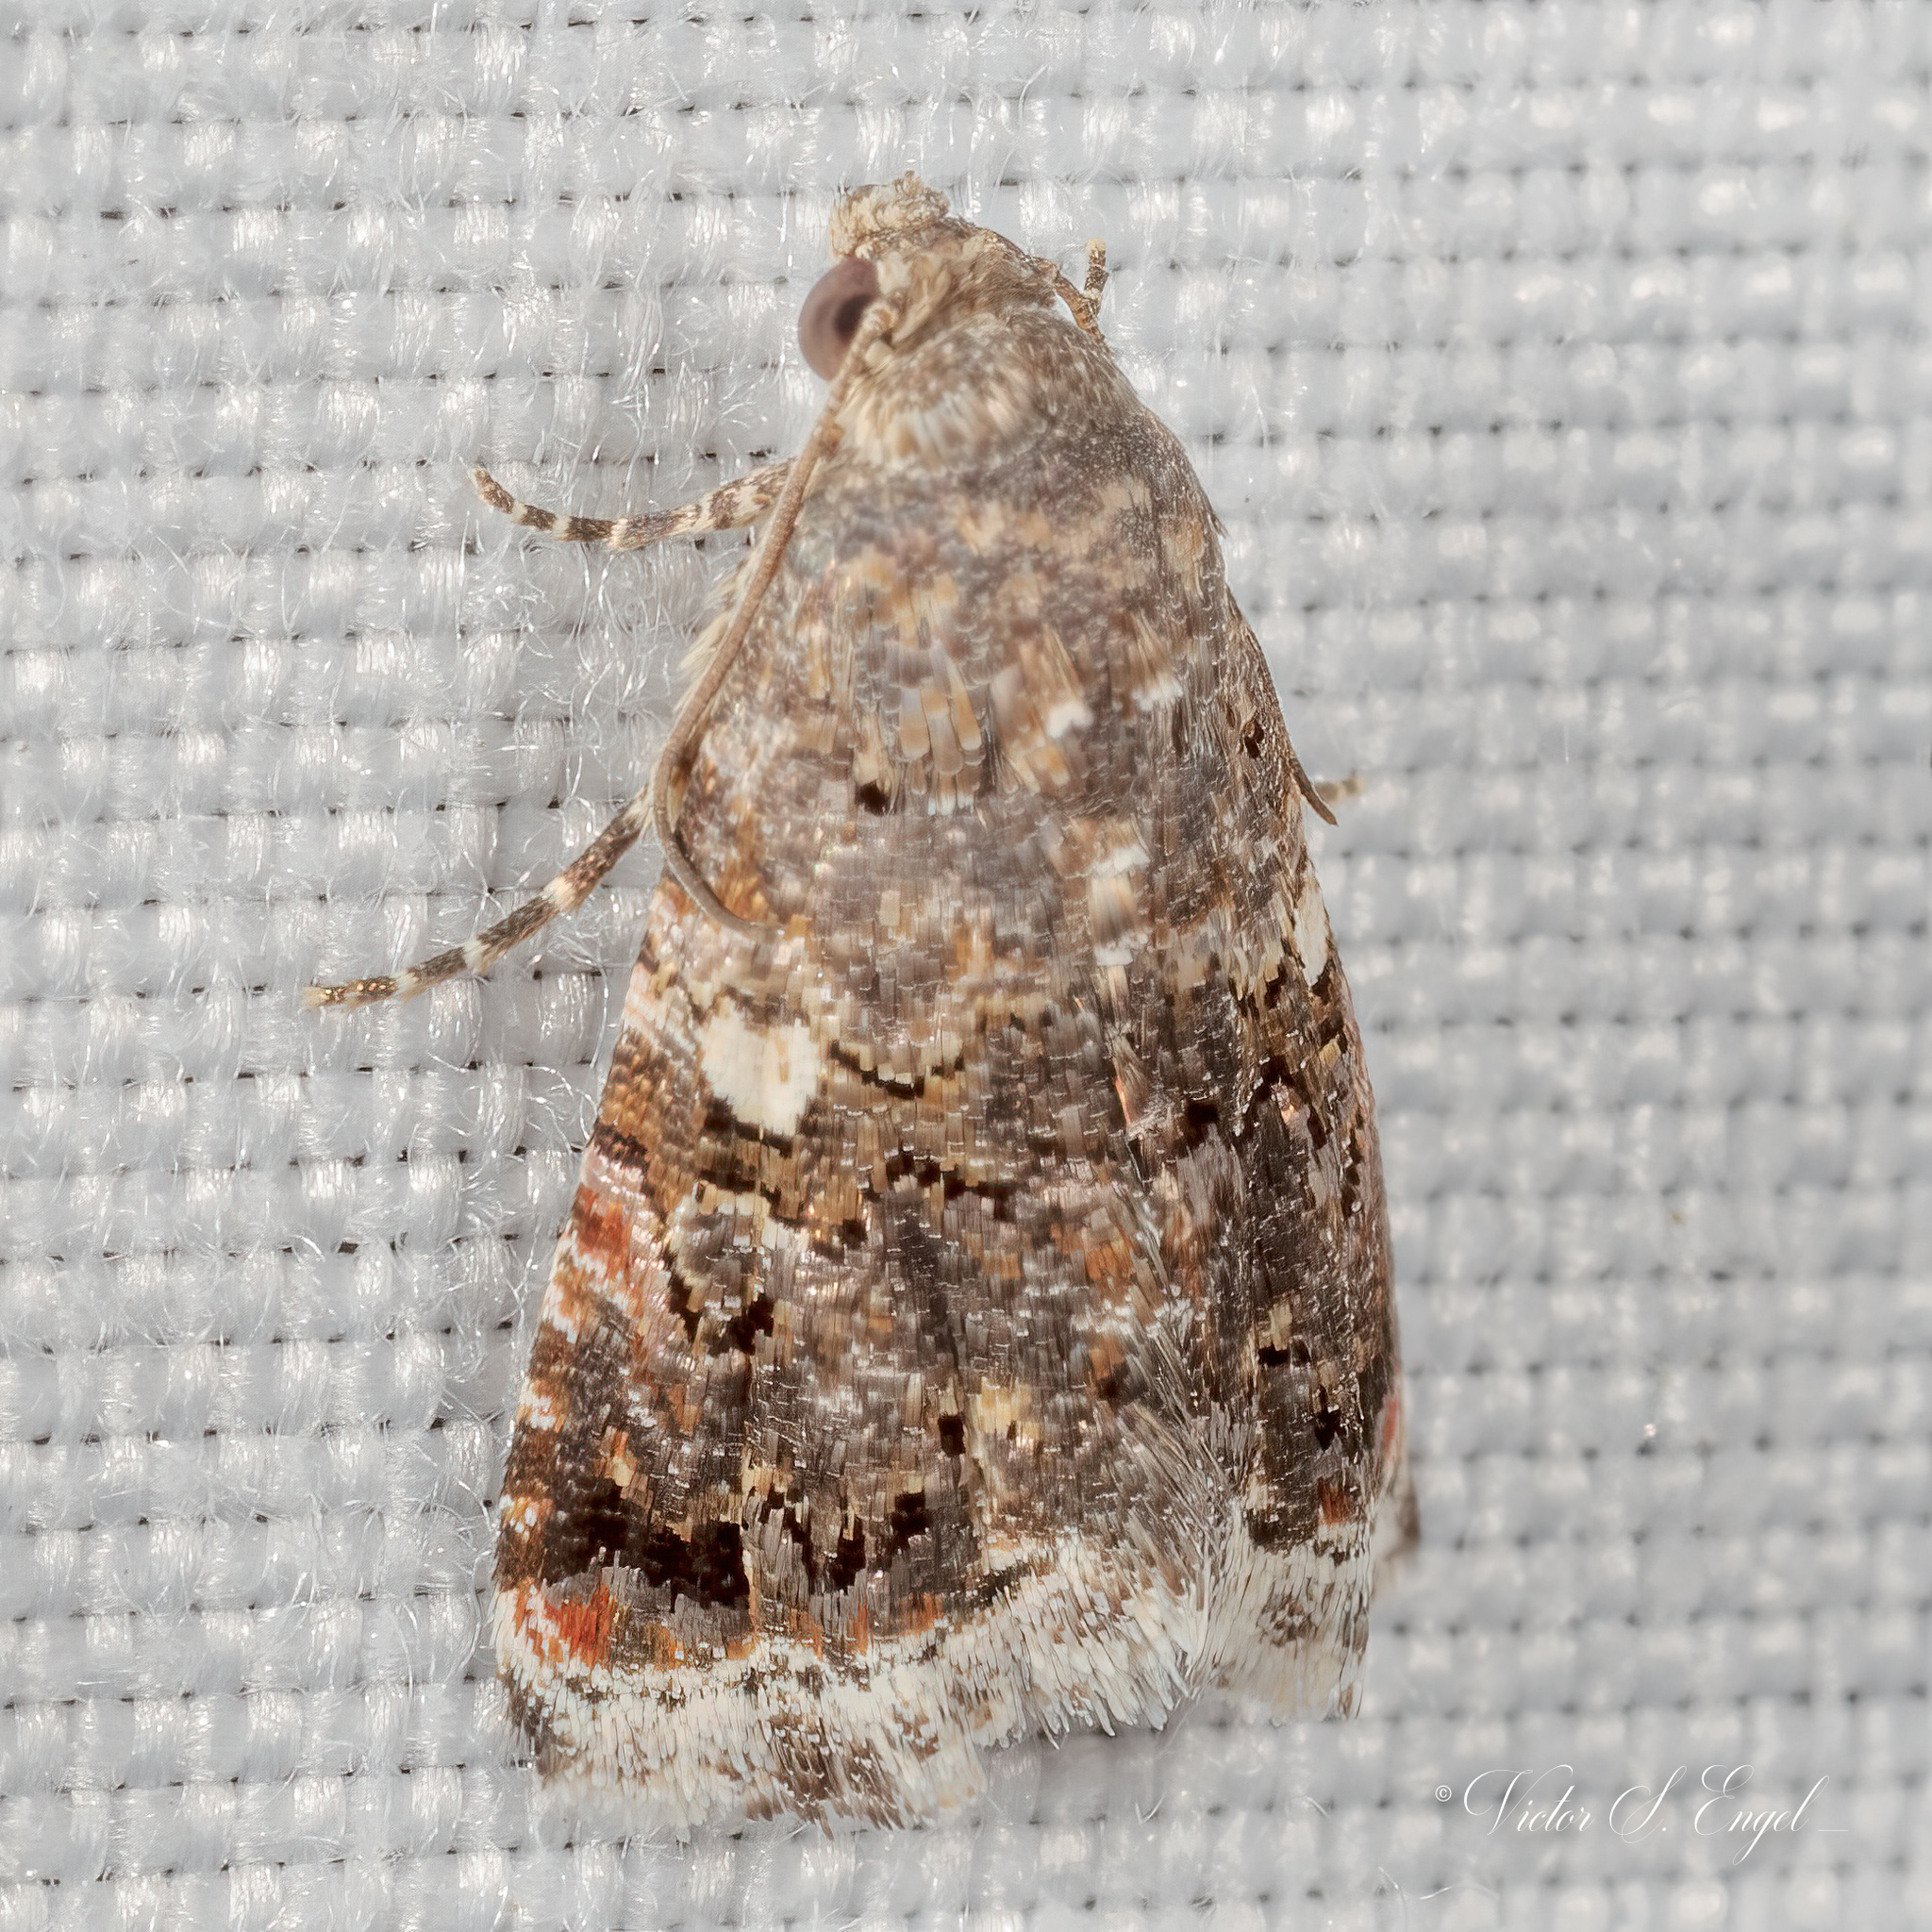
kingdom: Animalia
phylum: Arthropoda
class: Insecta
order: Lepidoptera
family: Noctuidae
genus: Tripudia
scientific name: Tripudia luxuriosa
